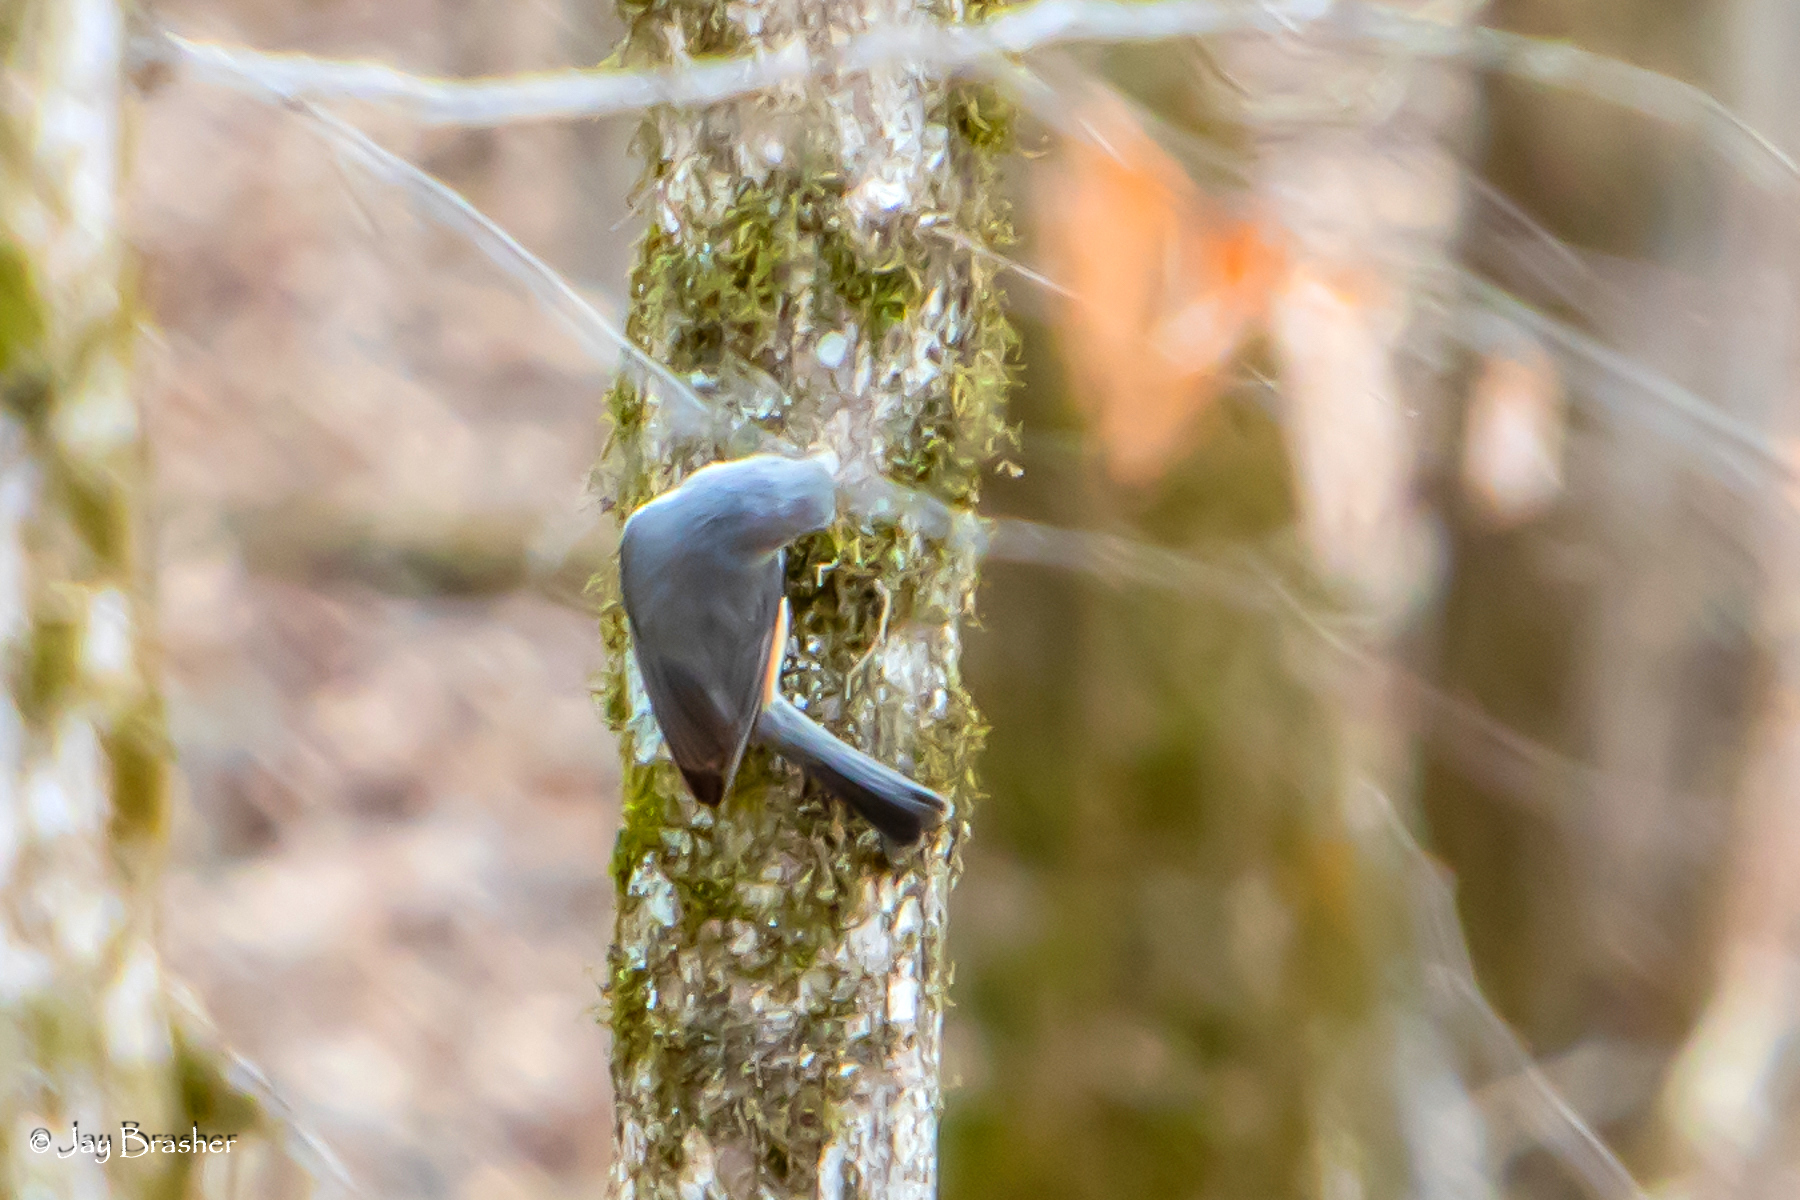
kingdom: Animalia
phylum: Chordata
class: Aves
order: Passeriformes
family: Paridae
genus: Baeolophus
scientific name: Baeolophus bicolor
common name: Tufted titmouse
